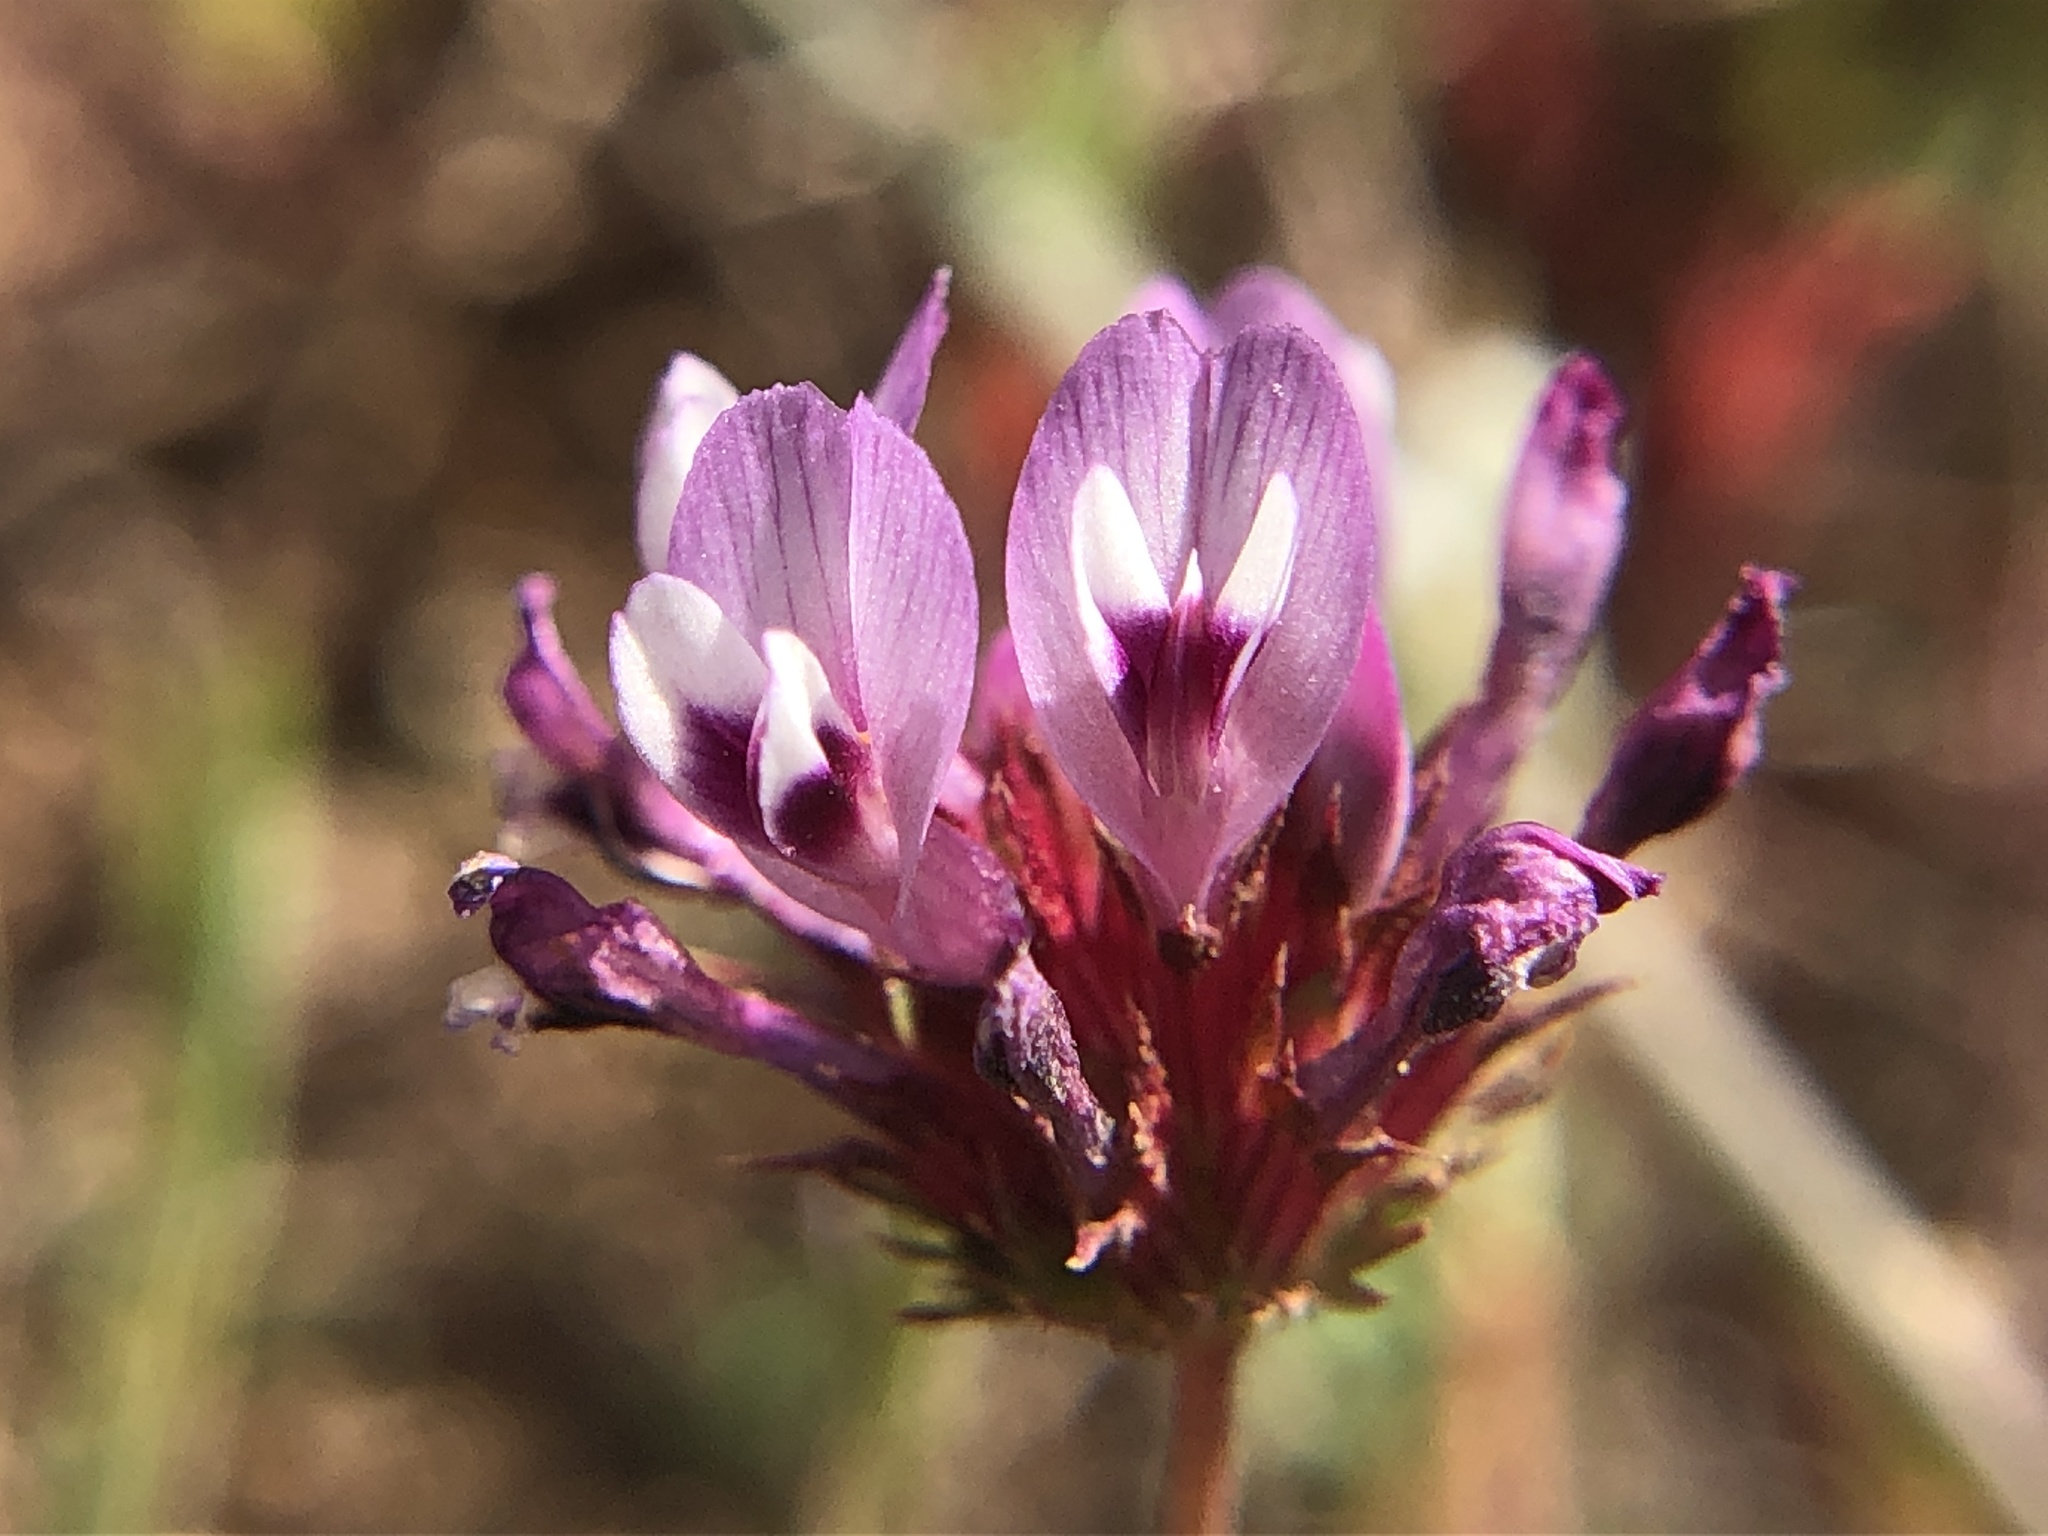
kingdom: Plantae
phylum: Tracheophyta
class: Magnoliopsida
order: Fabales
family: Fabaceae
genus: Trifolium
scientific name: Trifolium willdenovii
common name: Tomcat clover
